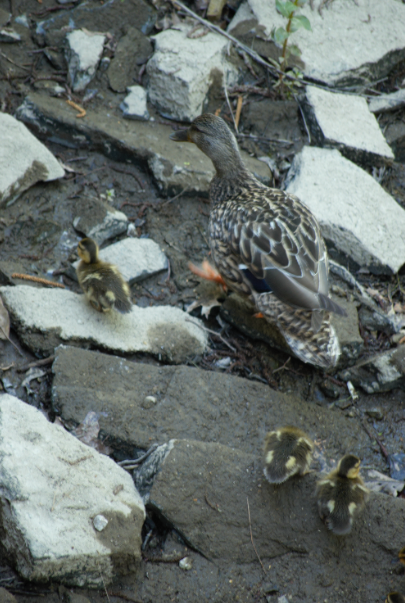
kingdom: Animalia
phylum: Chordata
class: Aves
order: Anseriformes
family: Anatidae
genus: Anas
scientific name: Anas platyrhynchos
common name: Mallard
